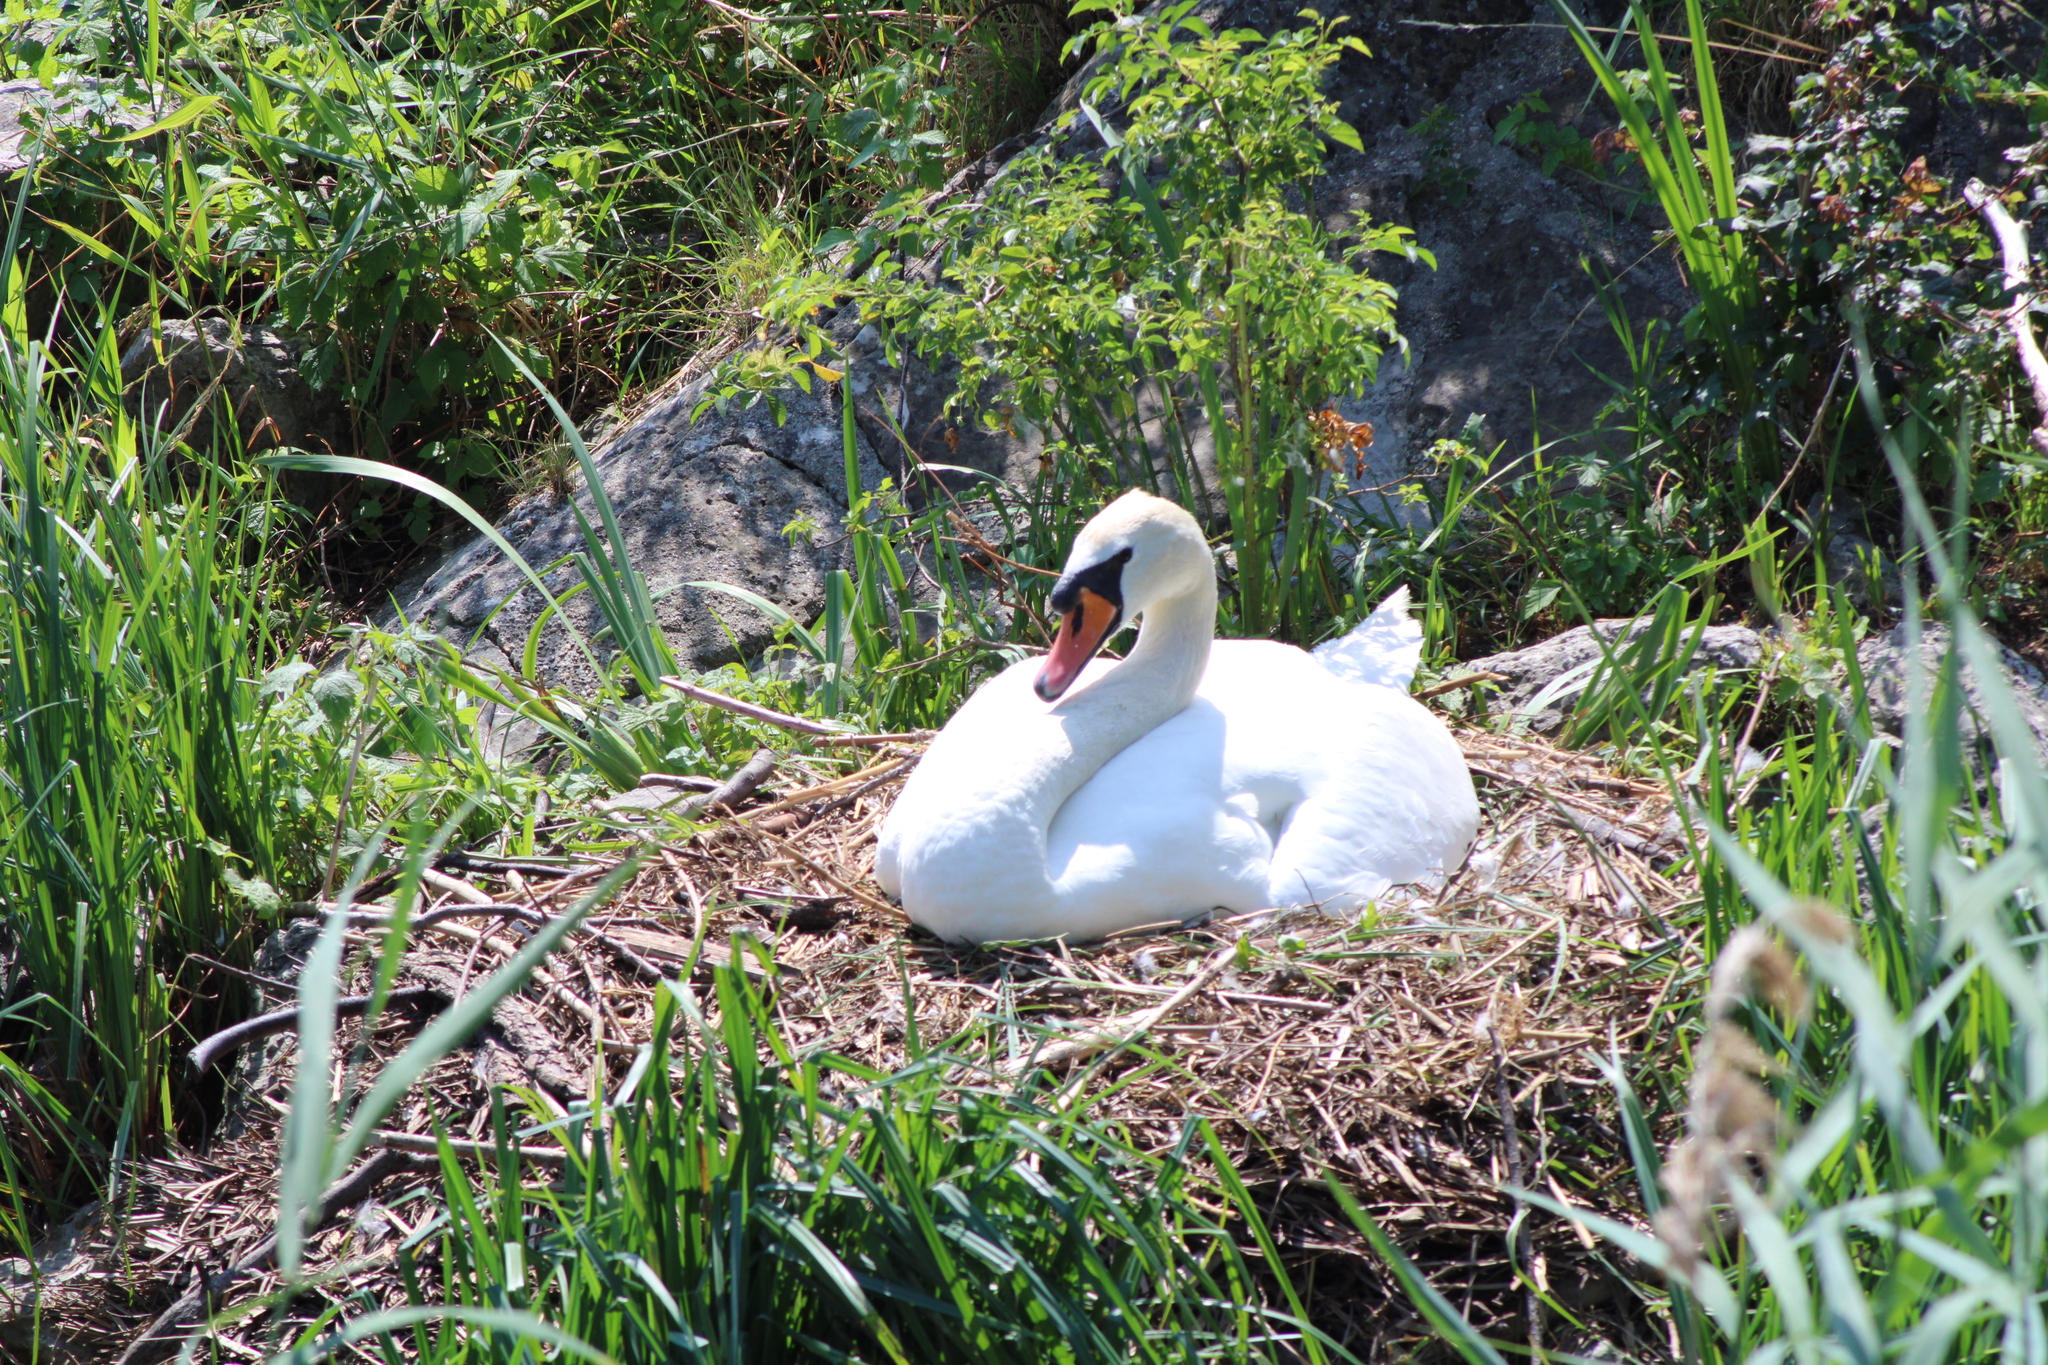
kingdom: Animalia
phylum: Chordata
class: Aves
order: Anseriformes
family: Anatidae
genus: Cygnus
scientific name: Cygnus olor
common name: Mute swan
